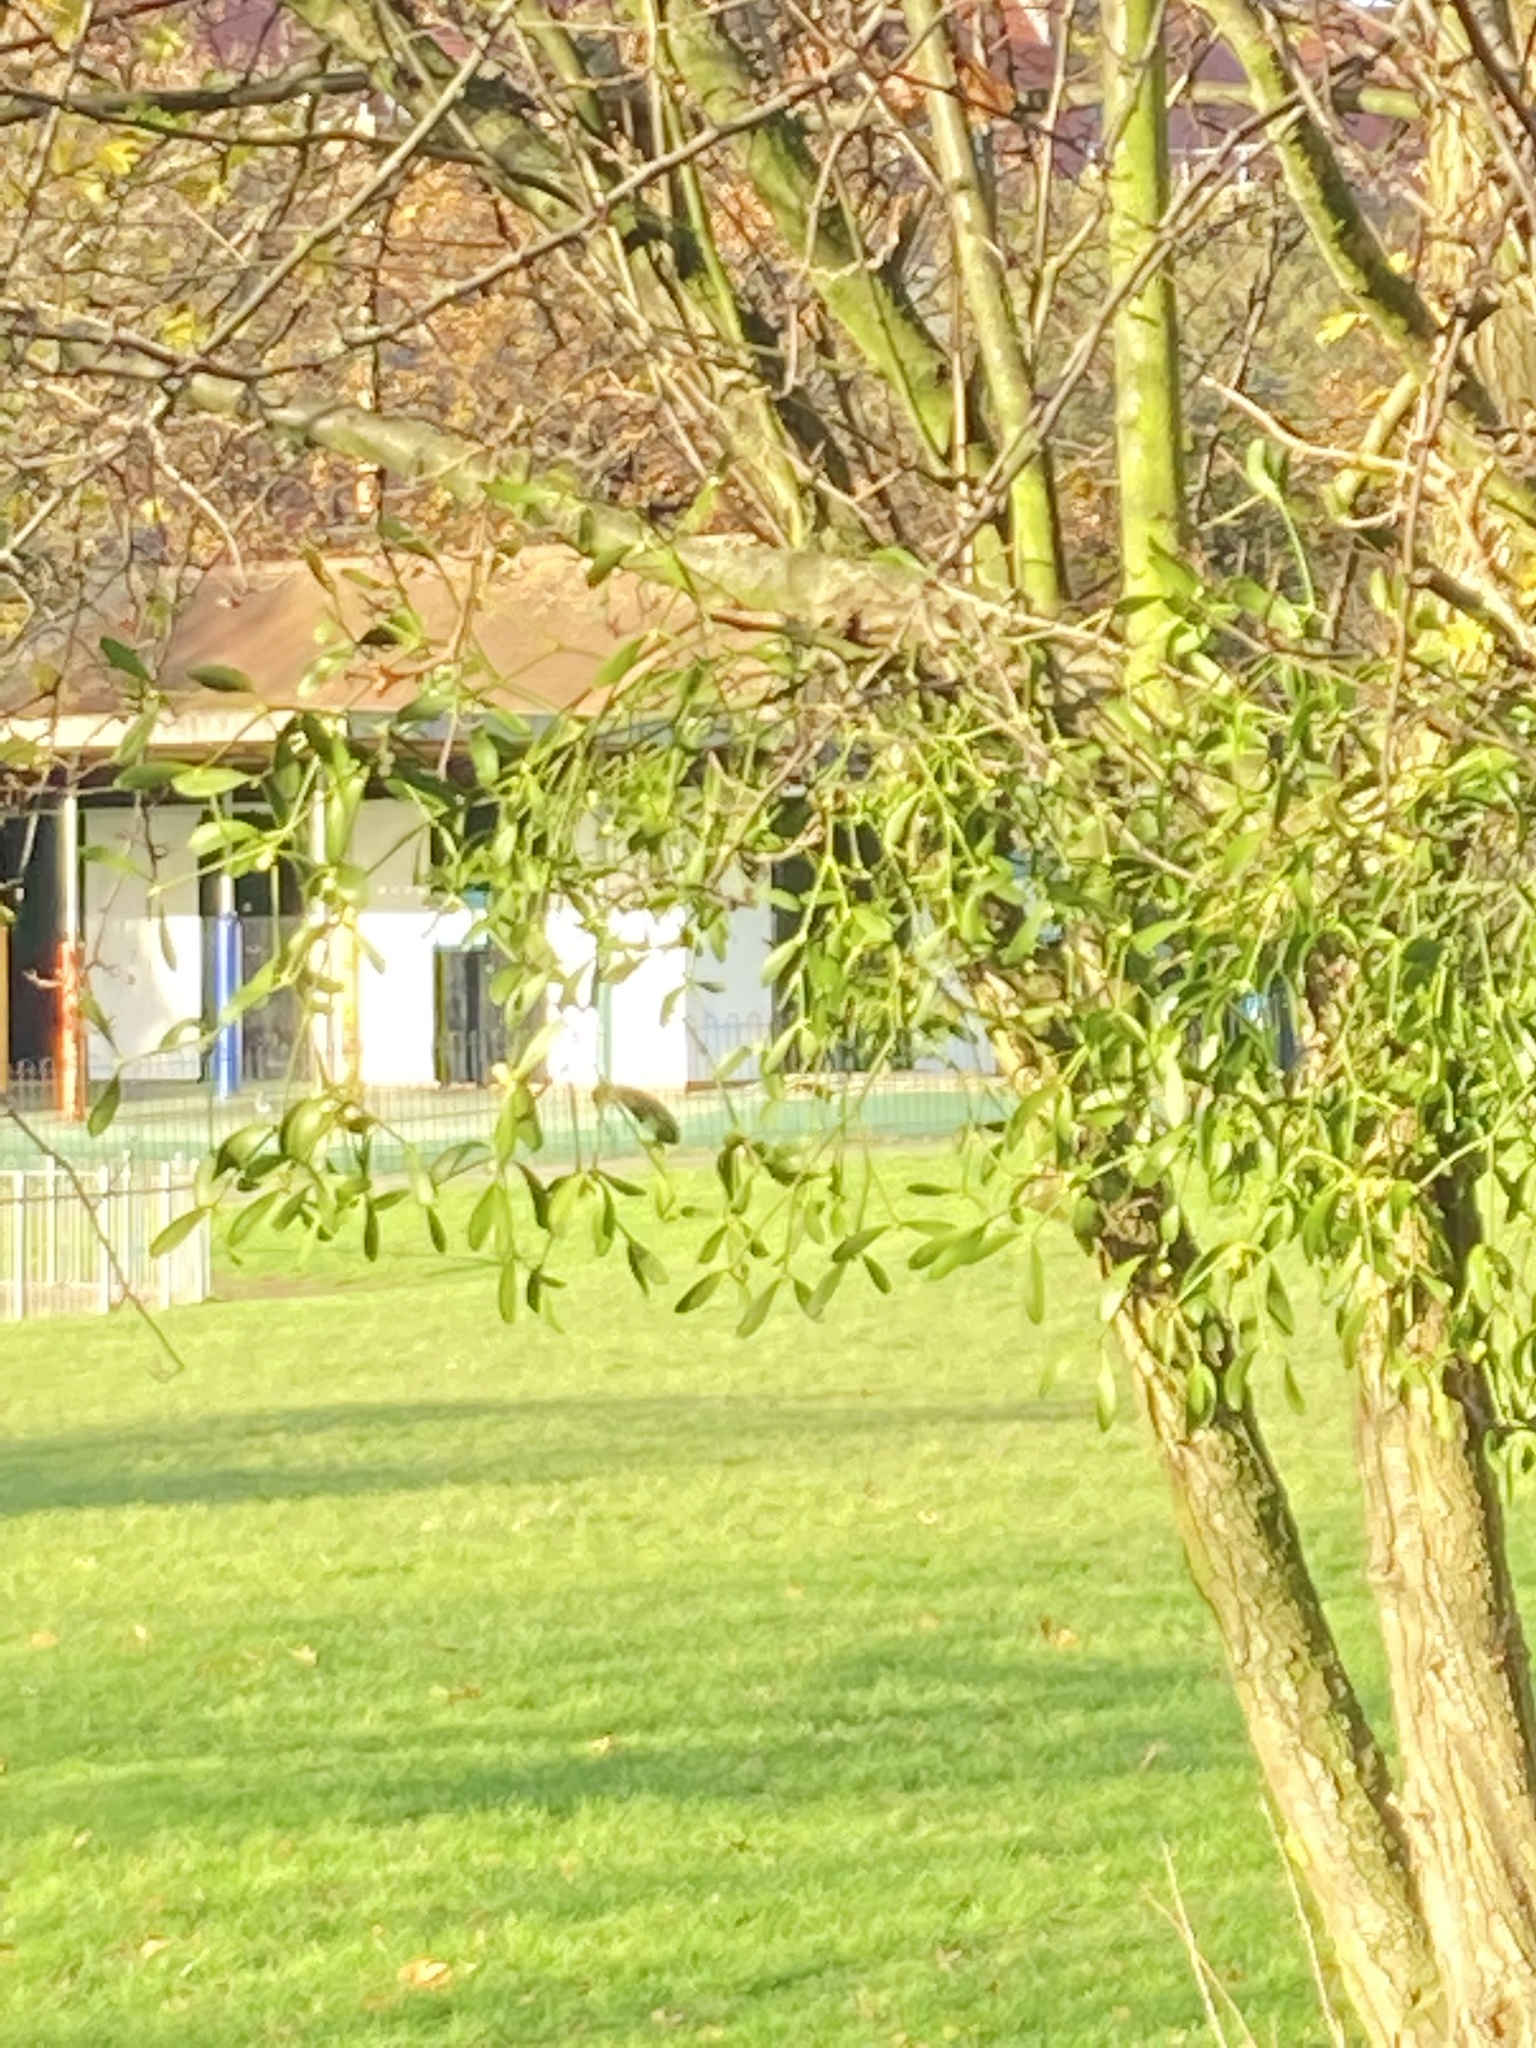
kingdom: Plantae
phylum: Tracheophyta
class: Magnoliopsida
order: Santalales
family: Viscaceae
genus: Viscum
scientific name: Viscum album
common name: Mistletoe
